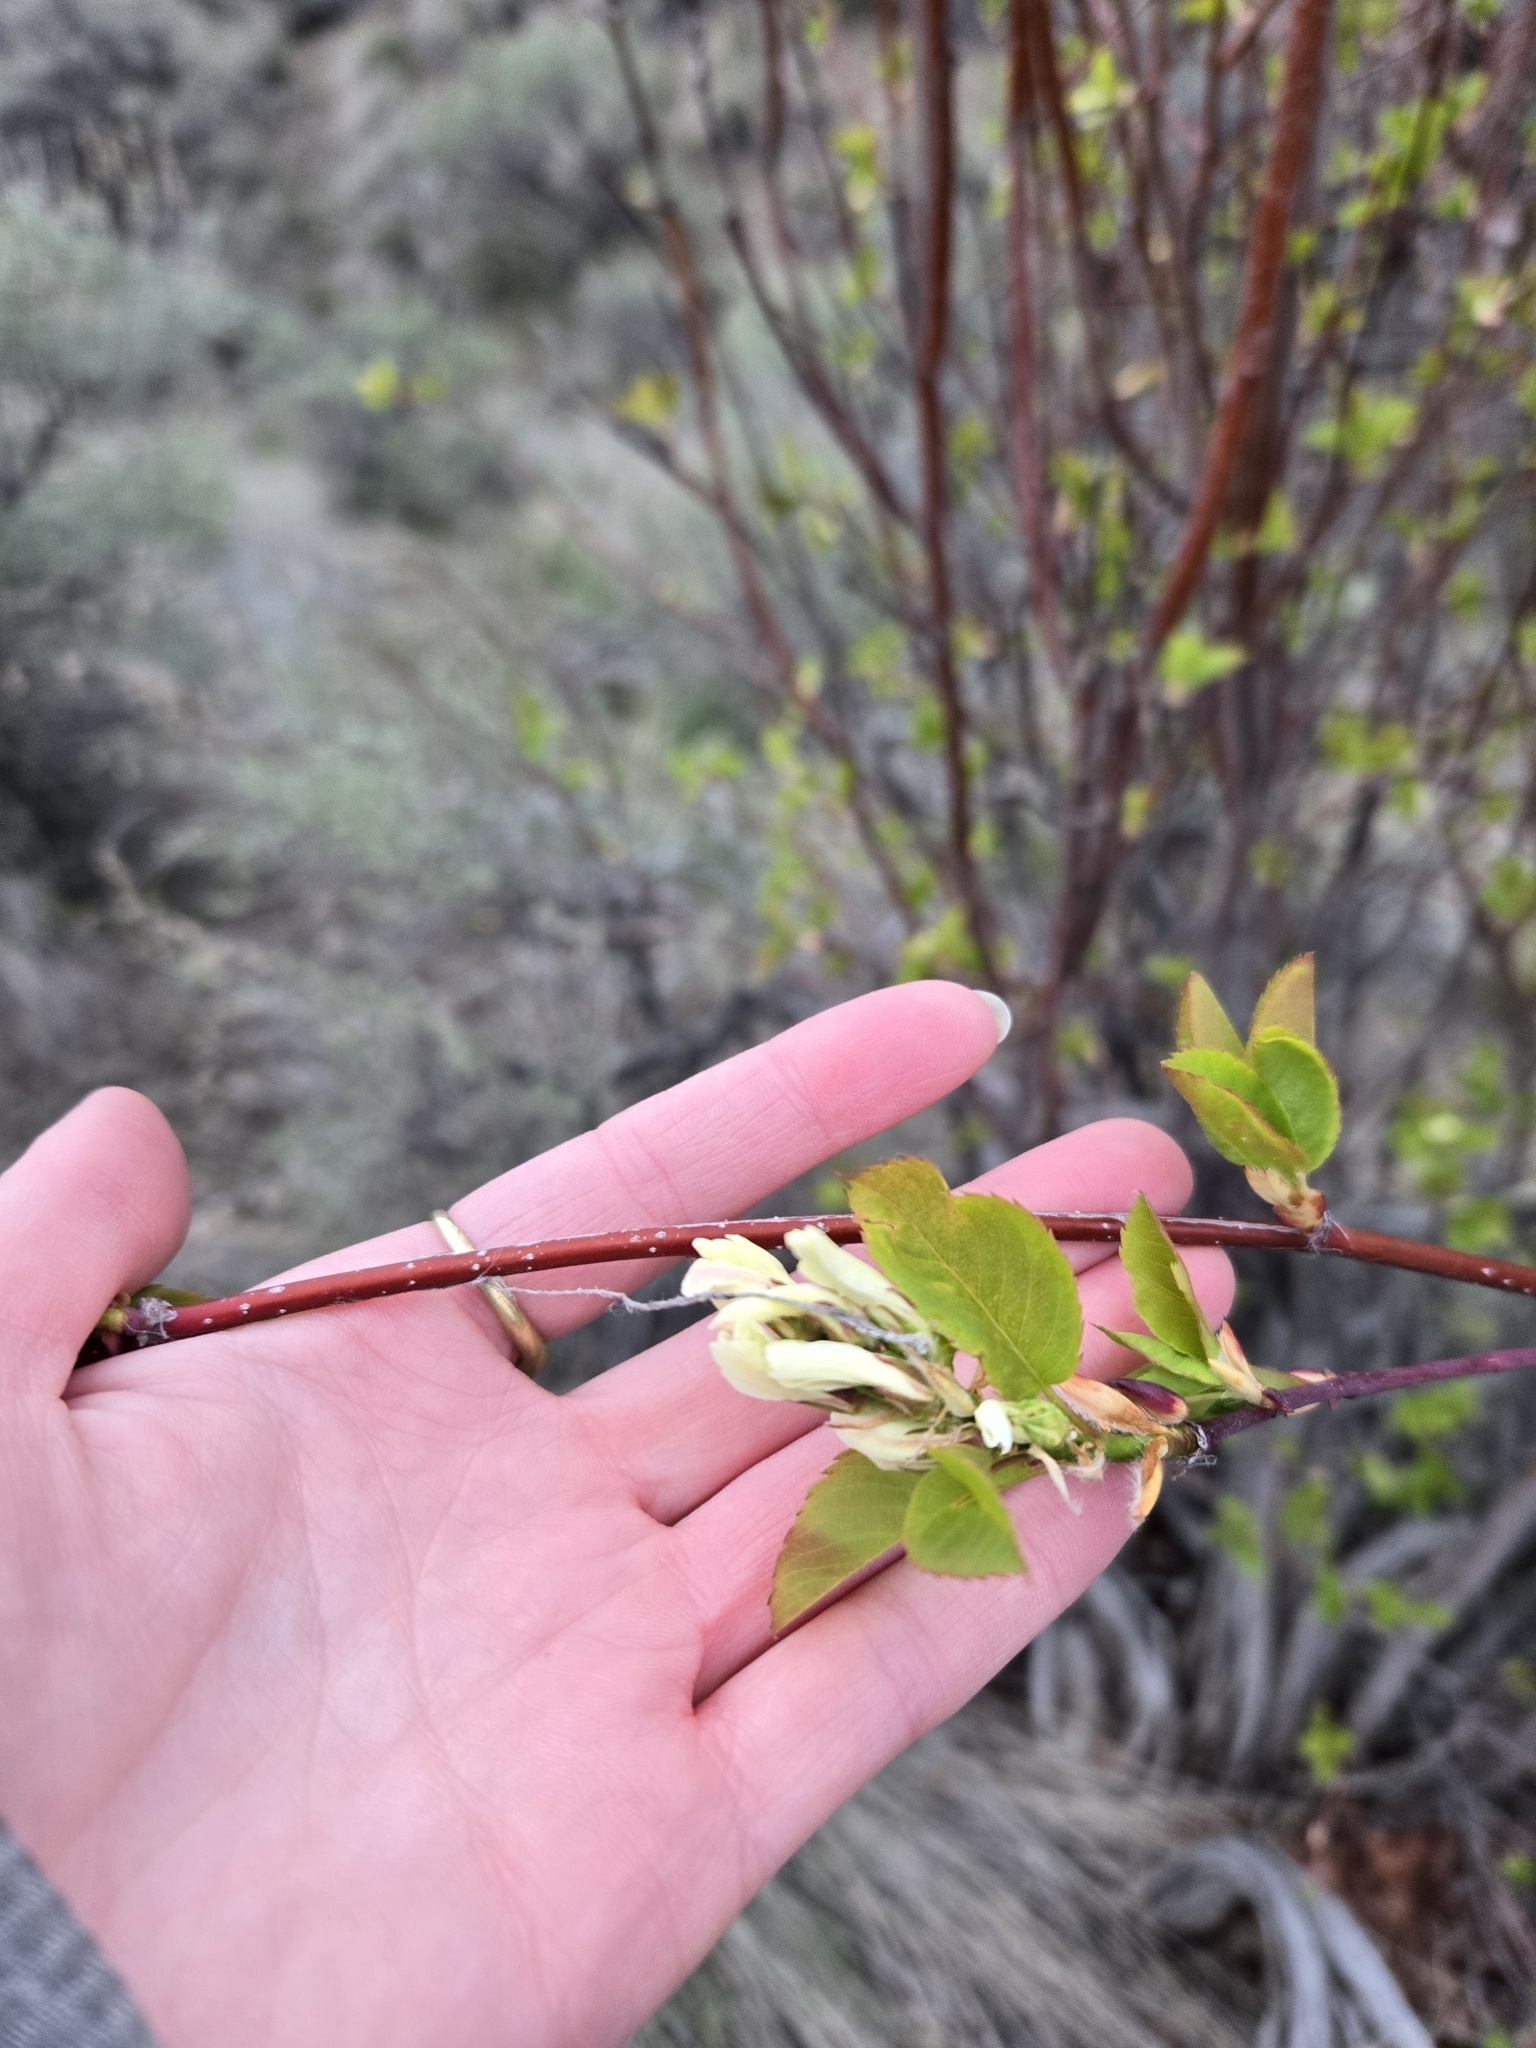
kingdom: Plantae
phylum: Tracheophyta
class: Magnoliopsida
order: Rosales
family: Rosaceae
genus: Amelanchier
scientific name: Amelanchier alnifolia
